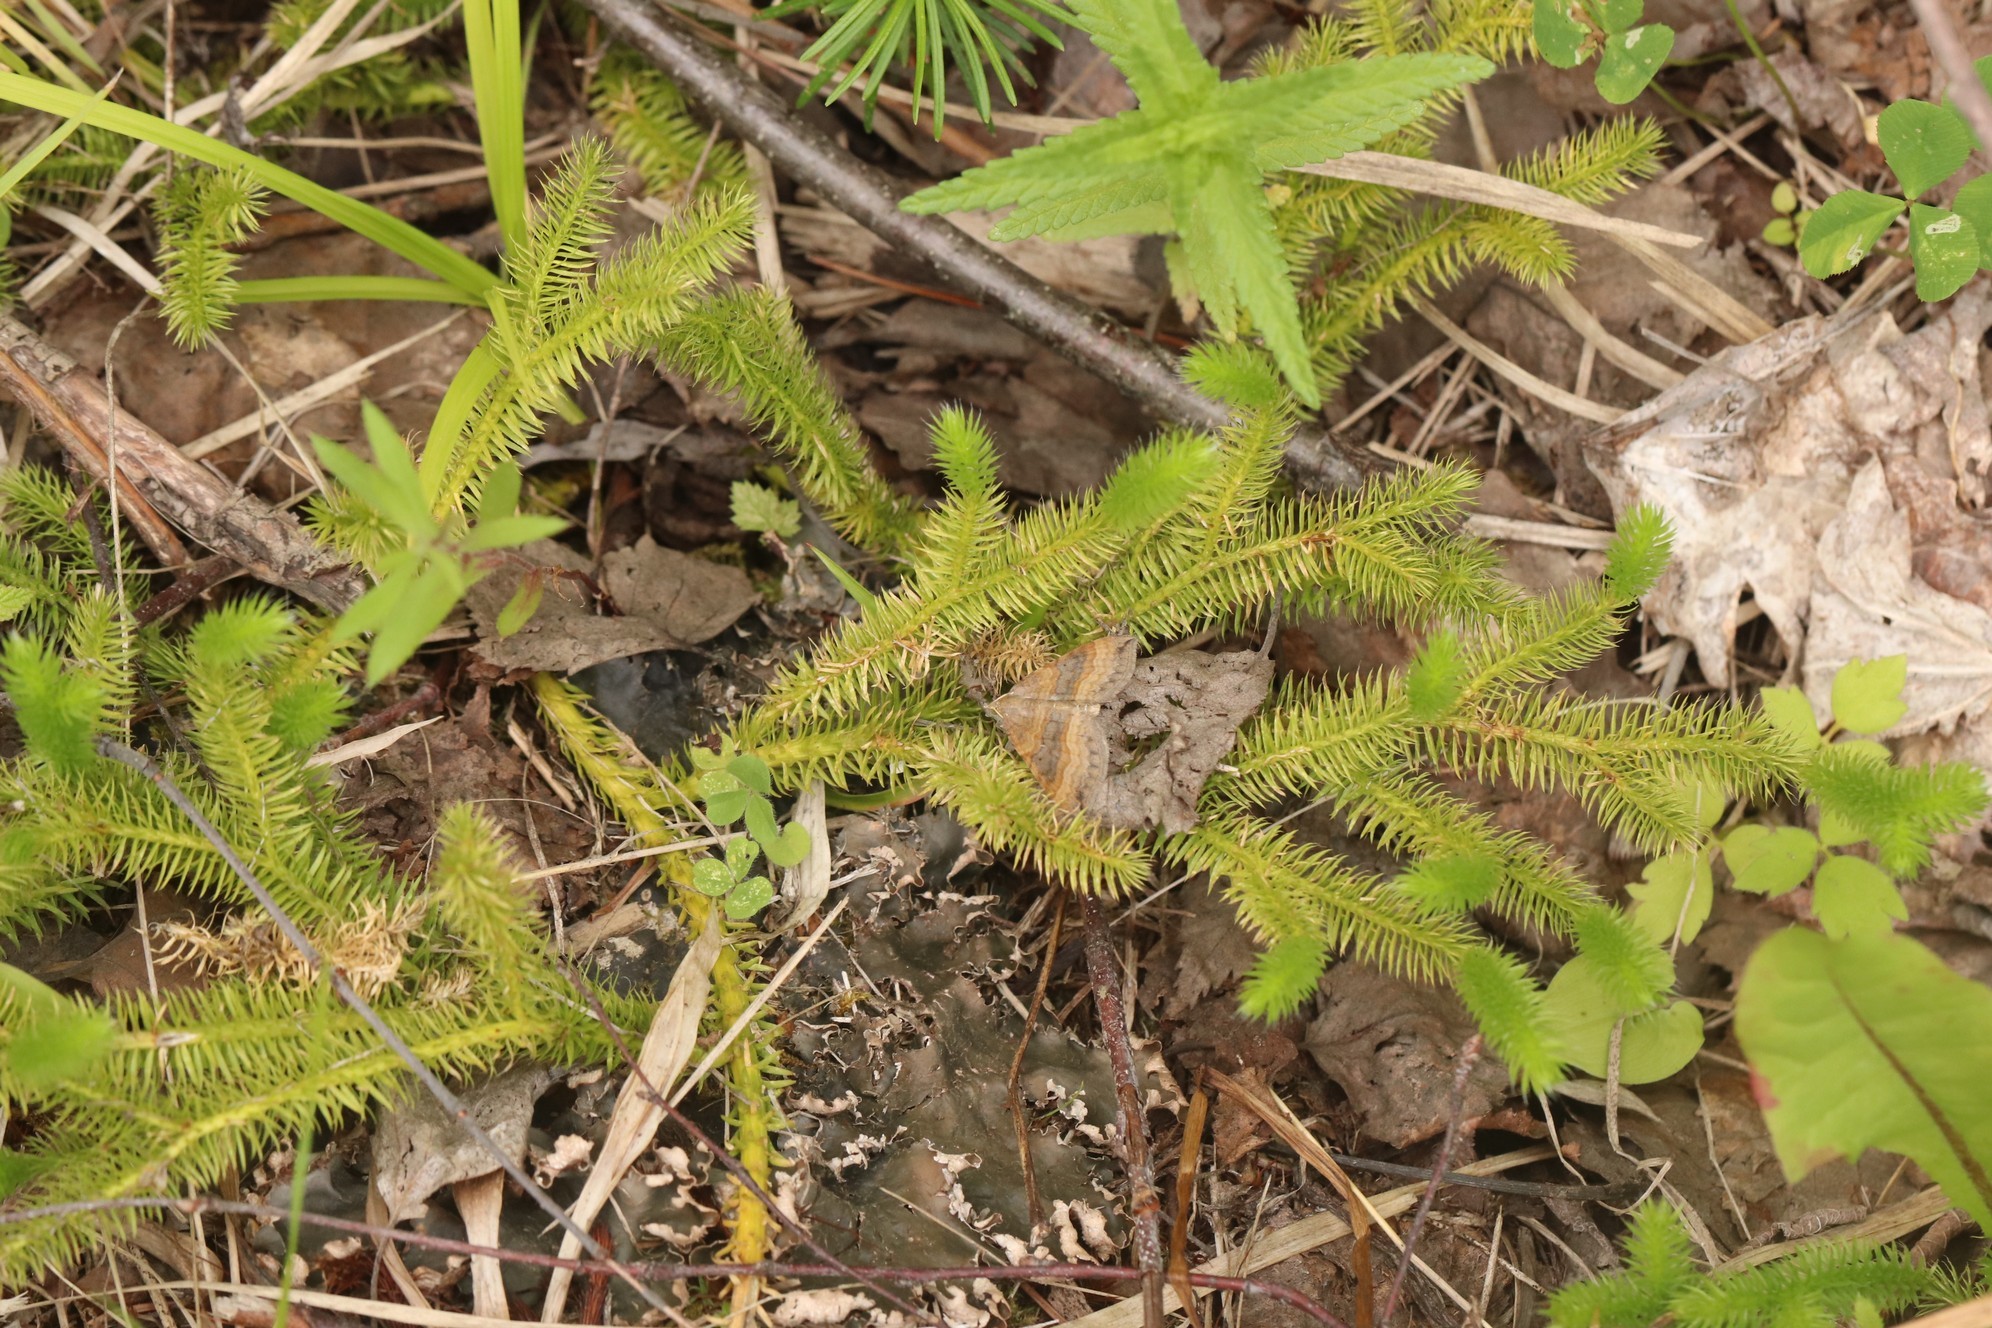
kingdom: Plantae
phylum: Tracheophyta
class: Lycopodiopsida
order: Lycopodiales
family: Lycopodiaceae
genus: Lycopodium
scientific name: Lycopodium clavatum
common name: Stag's-horn clubmoss
